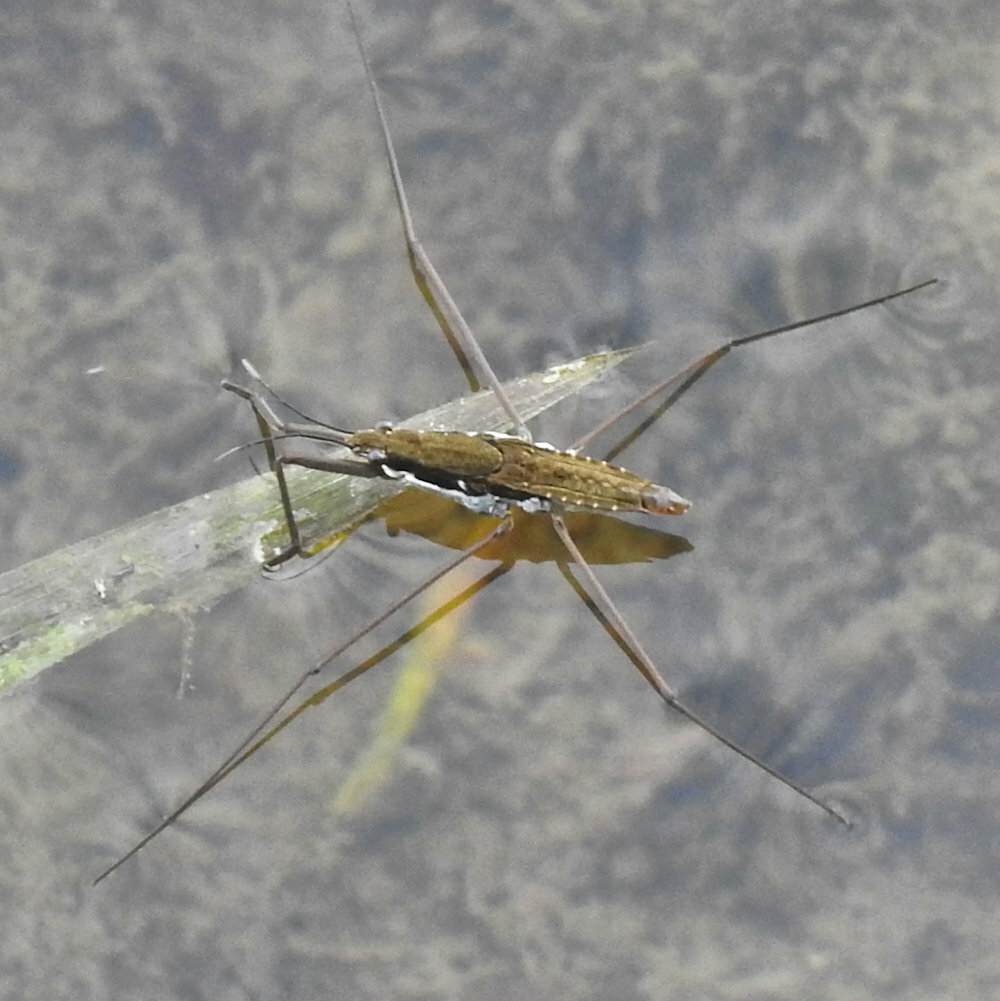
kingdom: Animalia
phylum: Arthropoda
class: Insecta
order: Hemiptera
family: Gerridae
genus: Aquarius
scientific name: Aquarius remigis
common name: Common water strider
